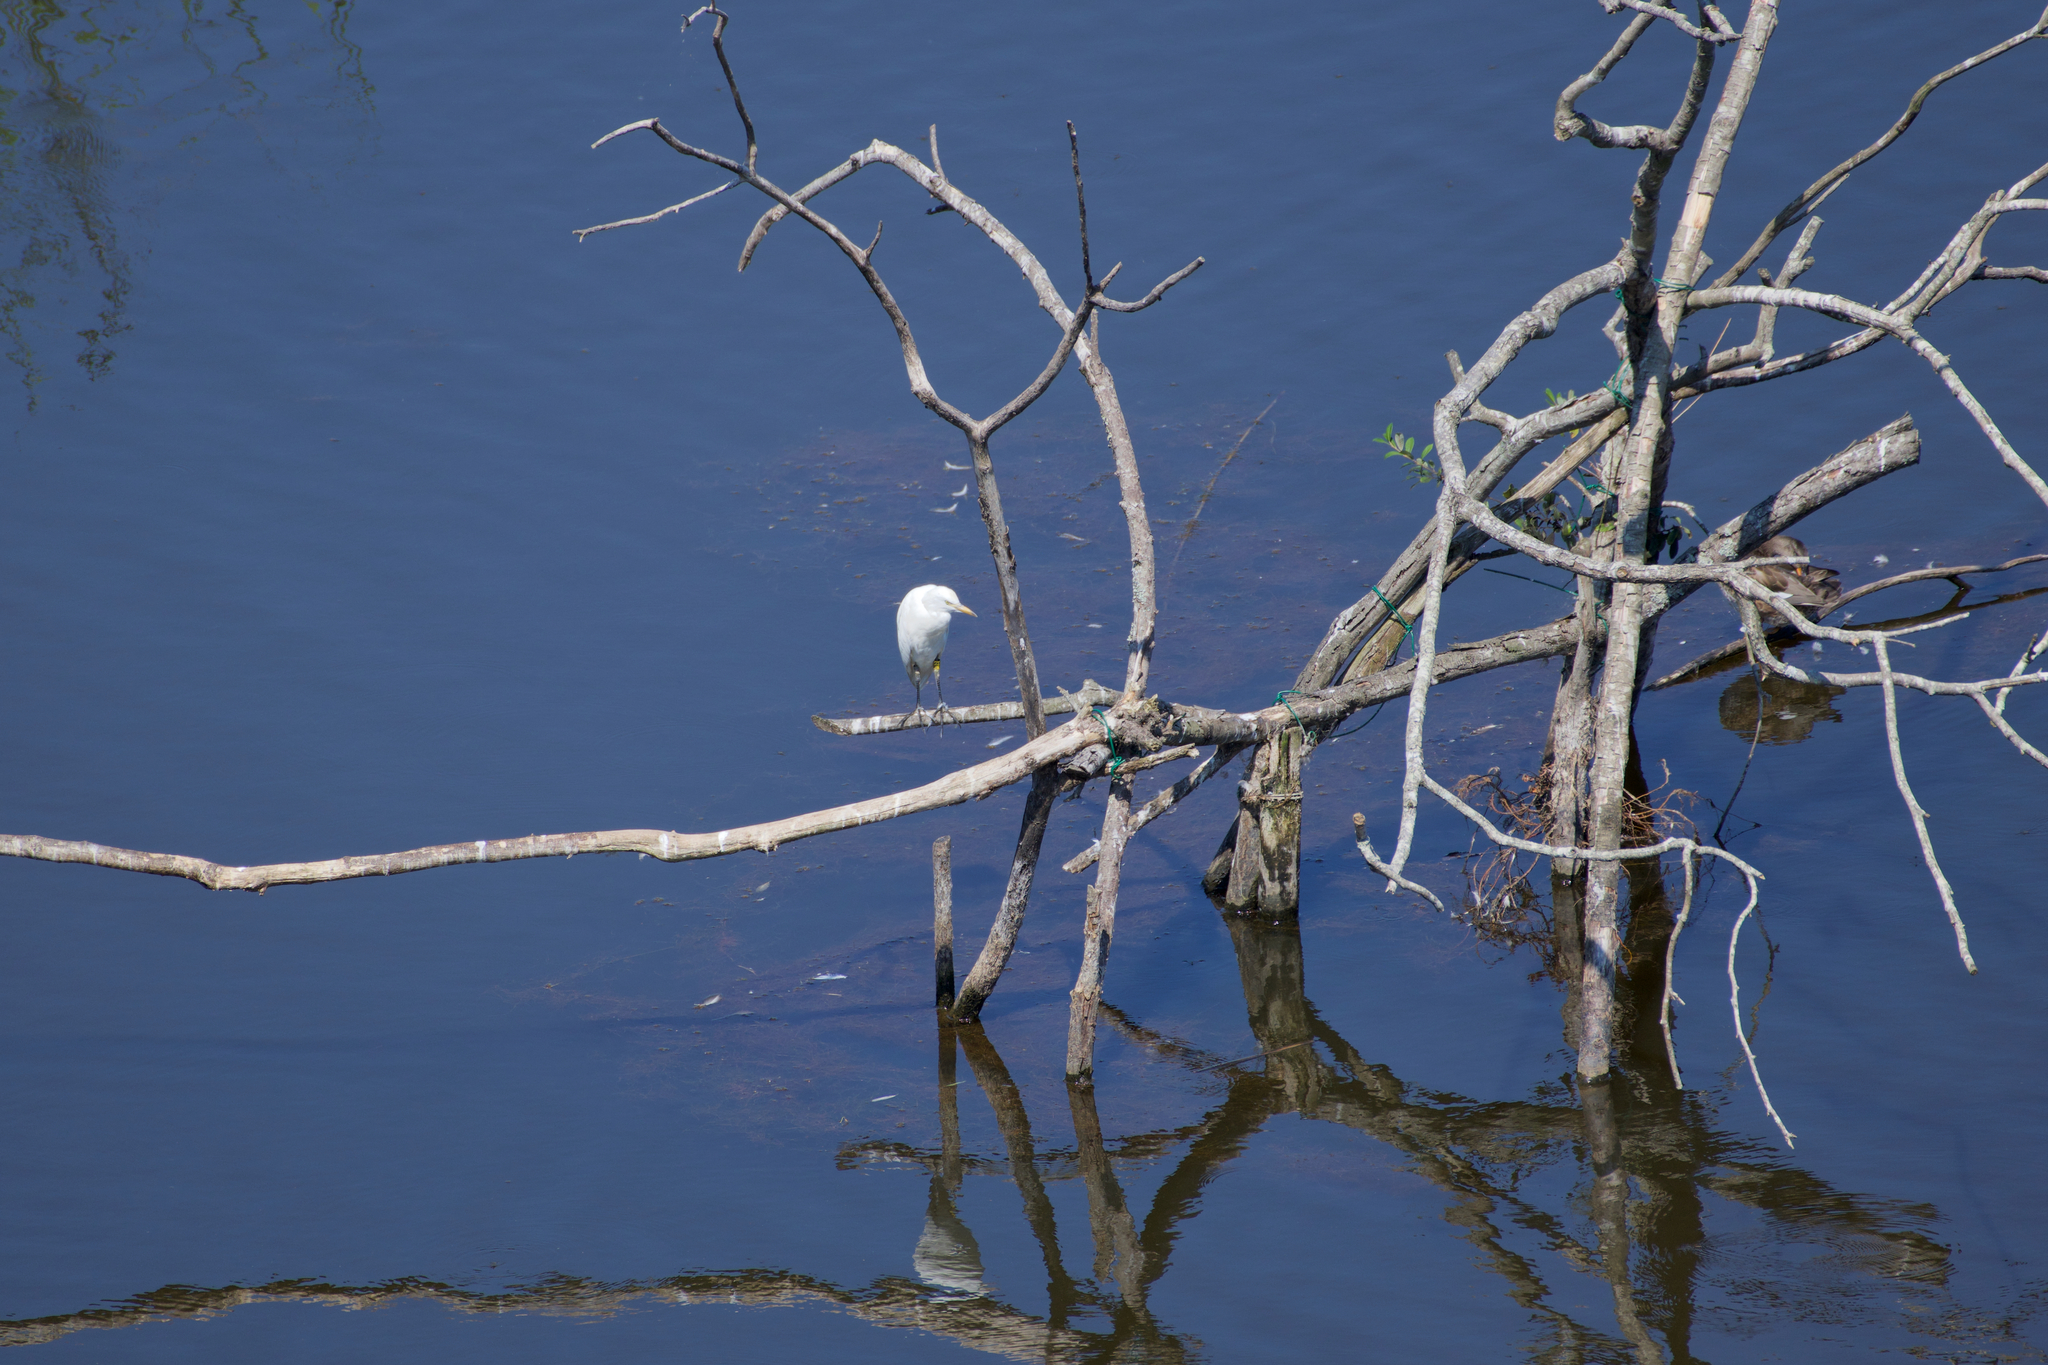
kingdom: Animalia
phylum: Chordata
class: Aves
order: Pelecaniformes
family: Ardeidae
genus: Bubulcus
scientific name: Bubulcus ibis
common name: Cattle egret
